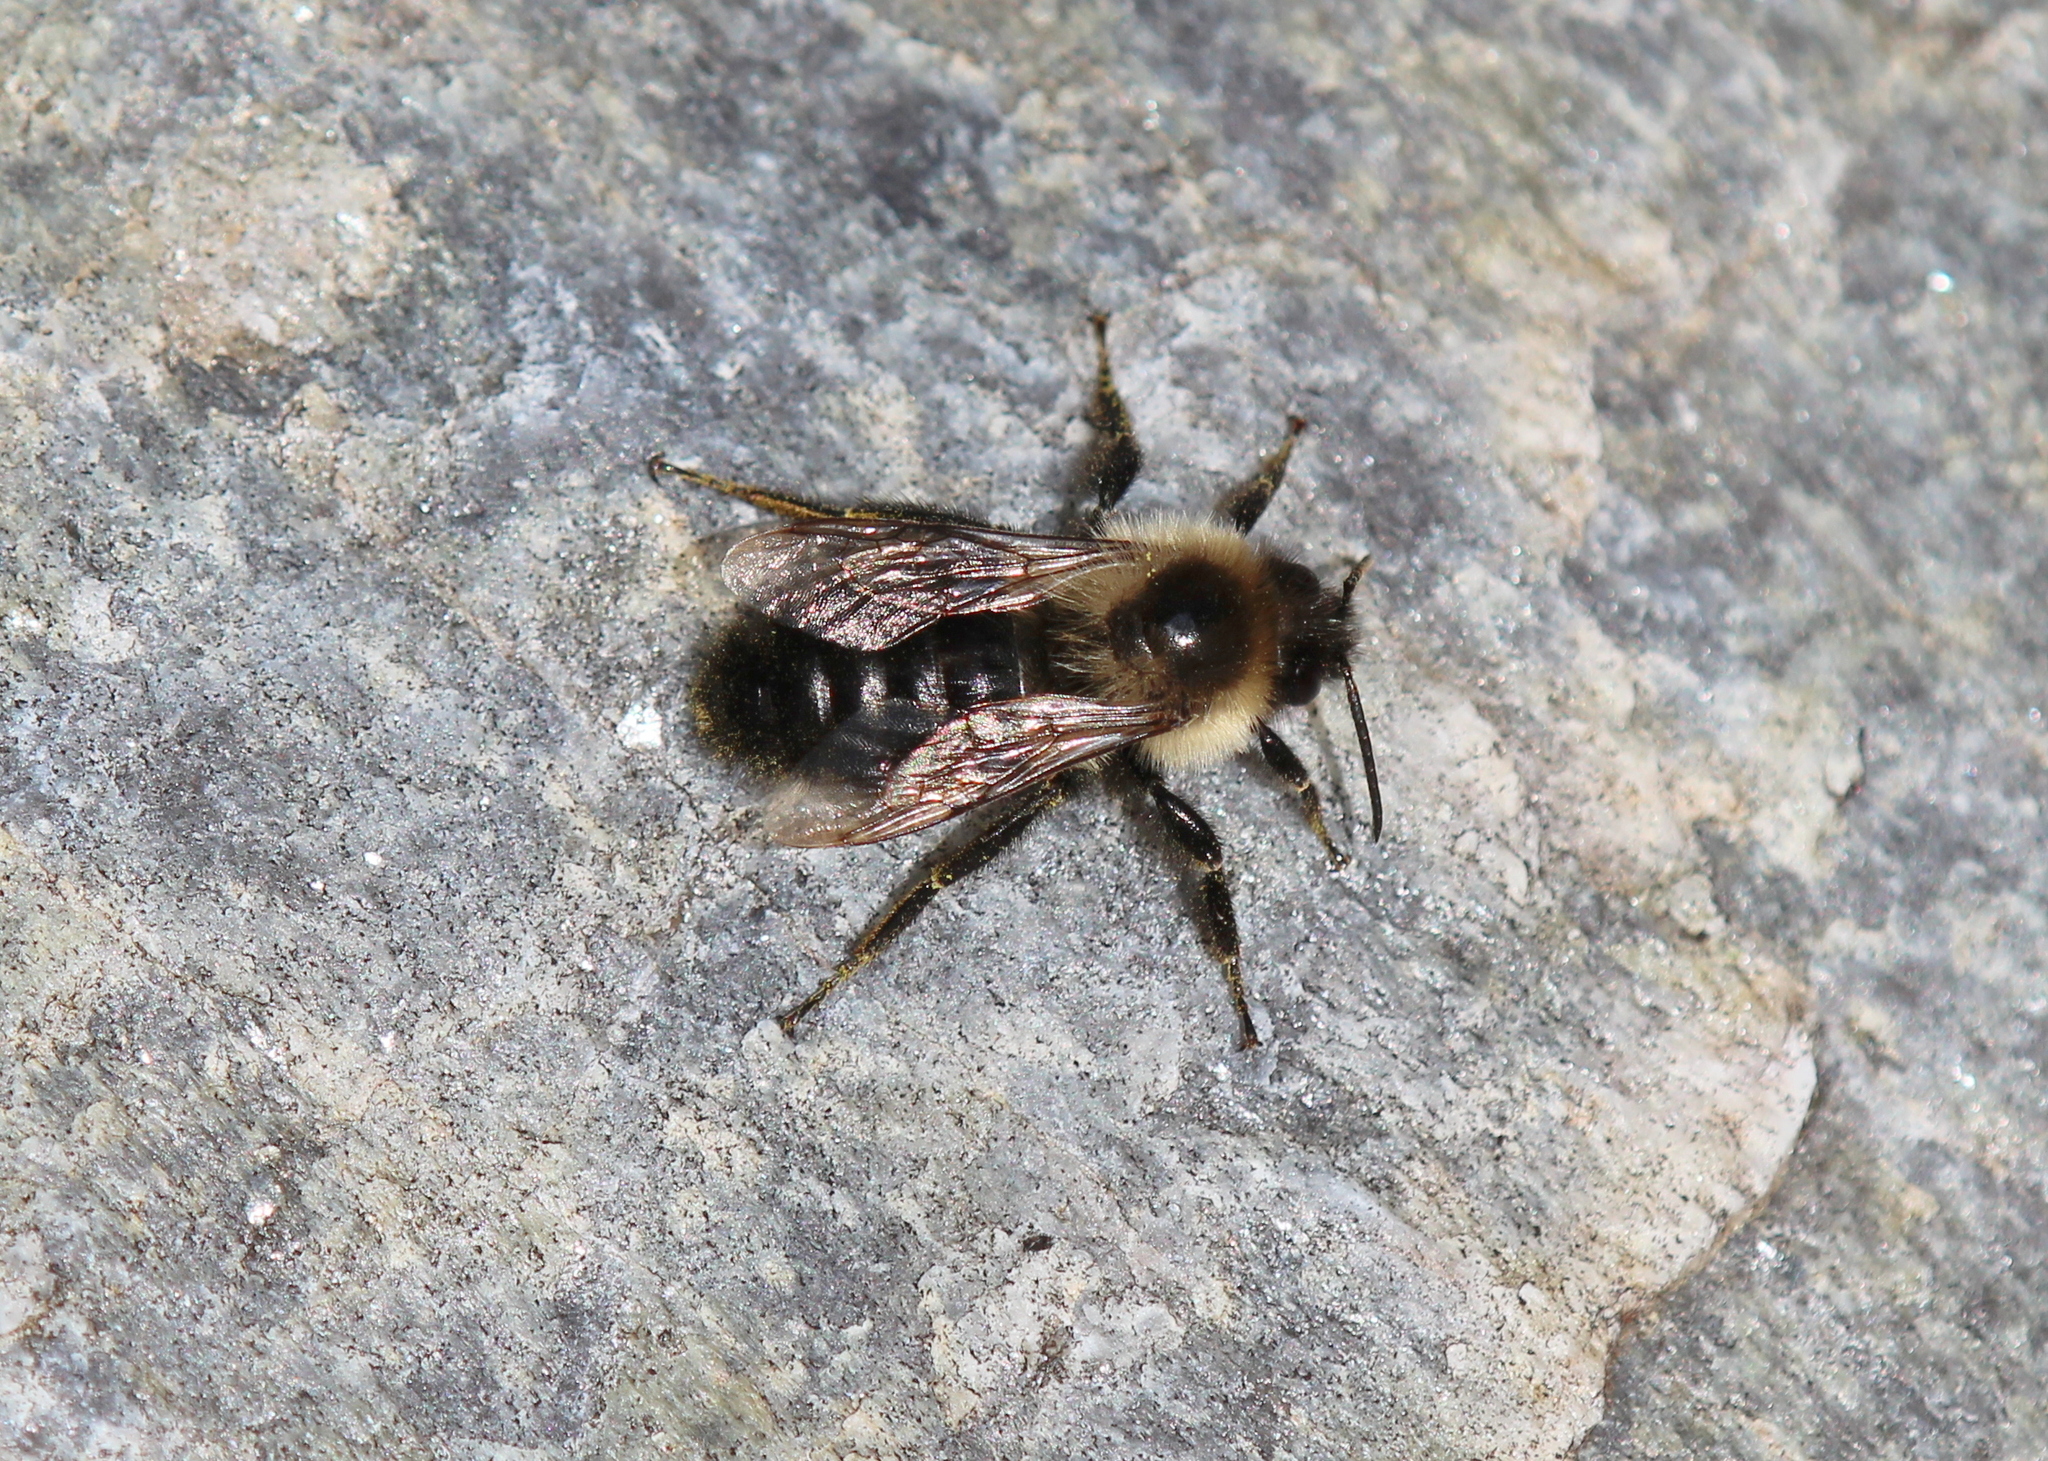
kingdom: Animalia
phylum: Arthropoda
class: Insecta
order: Hymenoptera
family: Apidae
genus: Bombus
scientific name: Bombus impatiens
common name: Common eastern bumble bee
